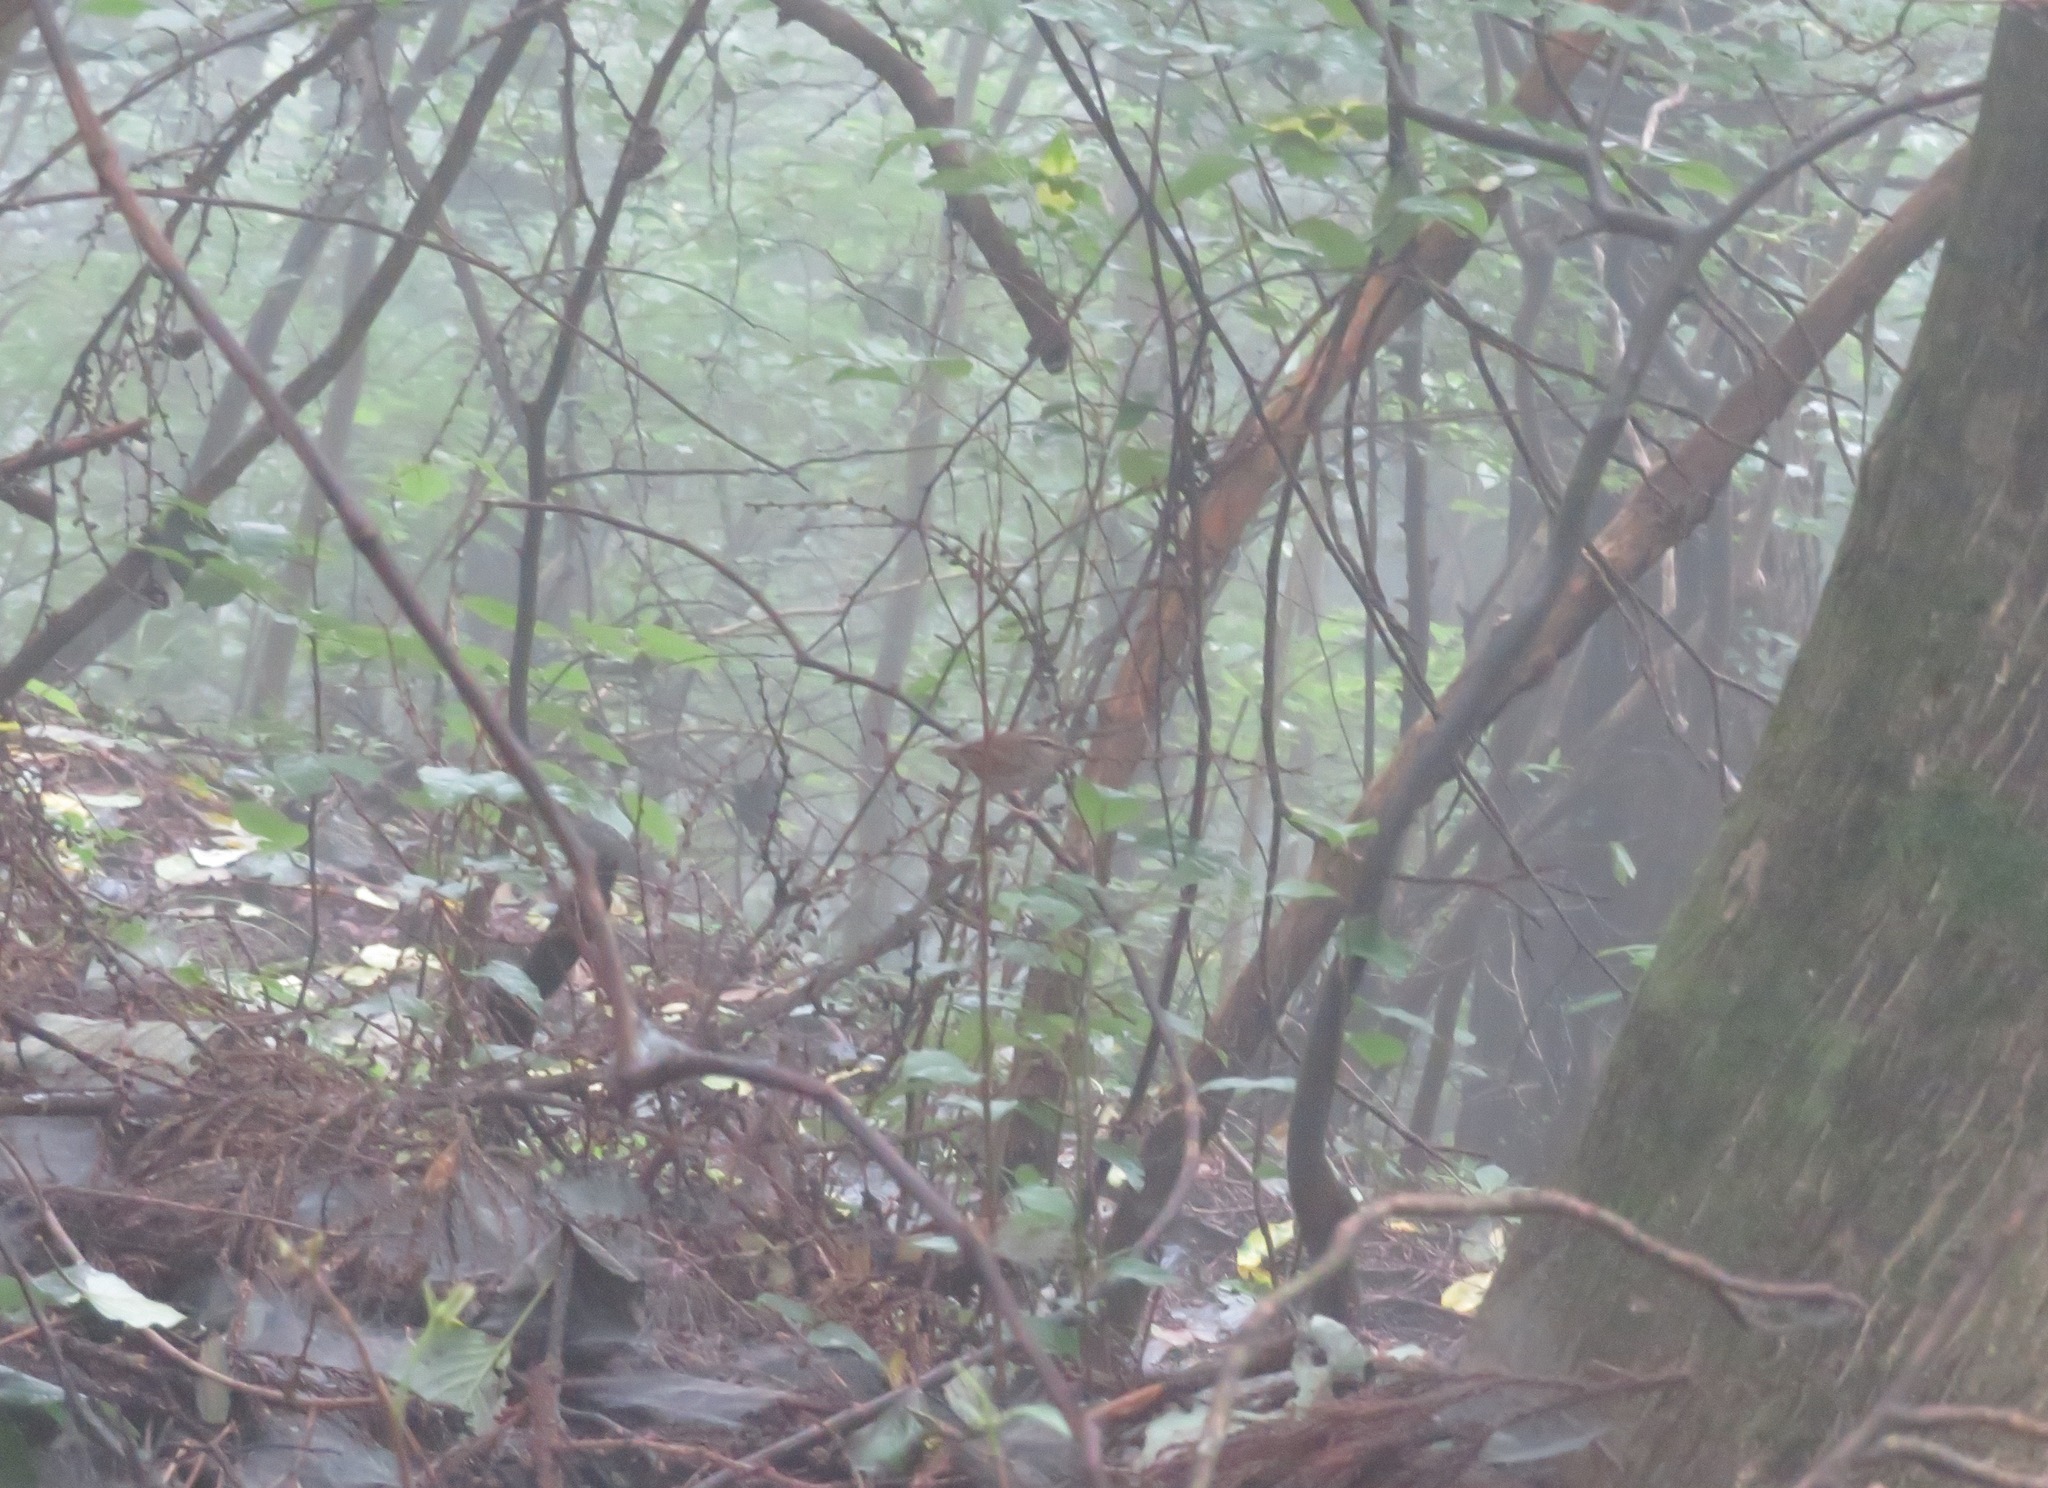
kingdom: Animalia
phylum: Chordata
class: Aves
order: Passeriformes
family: Cettiidae
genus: Urosphena
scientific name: Urosphena squameiceps
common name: Asian stubtail
